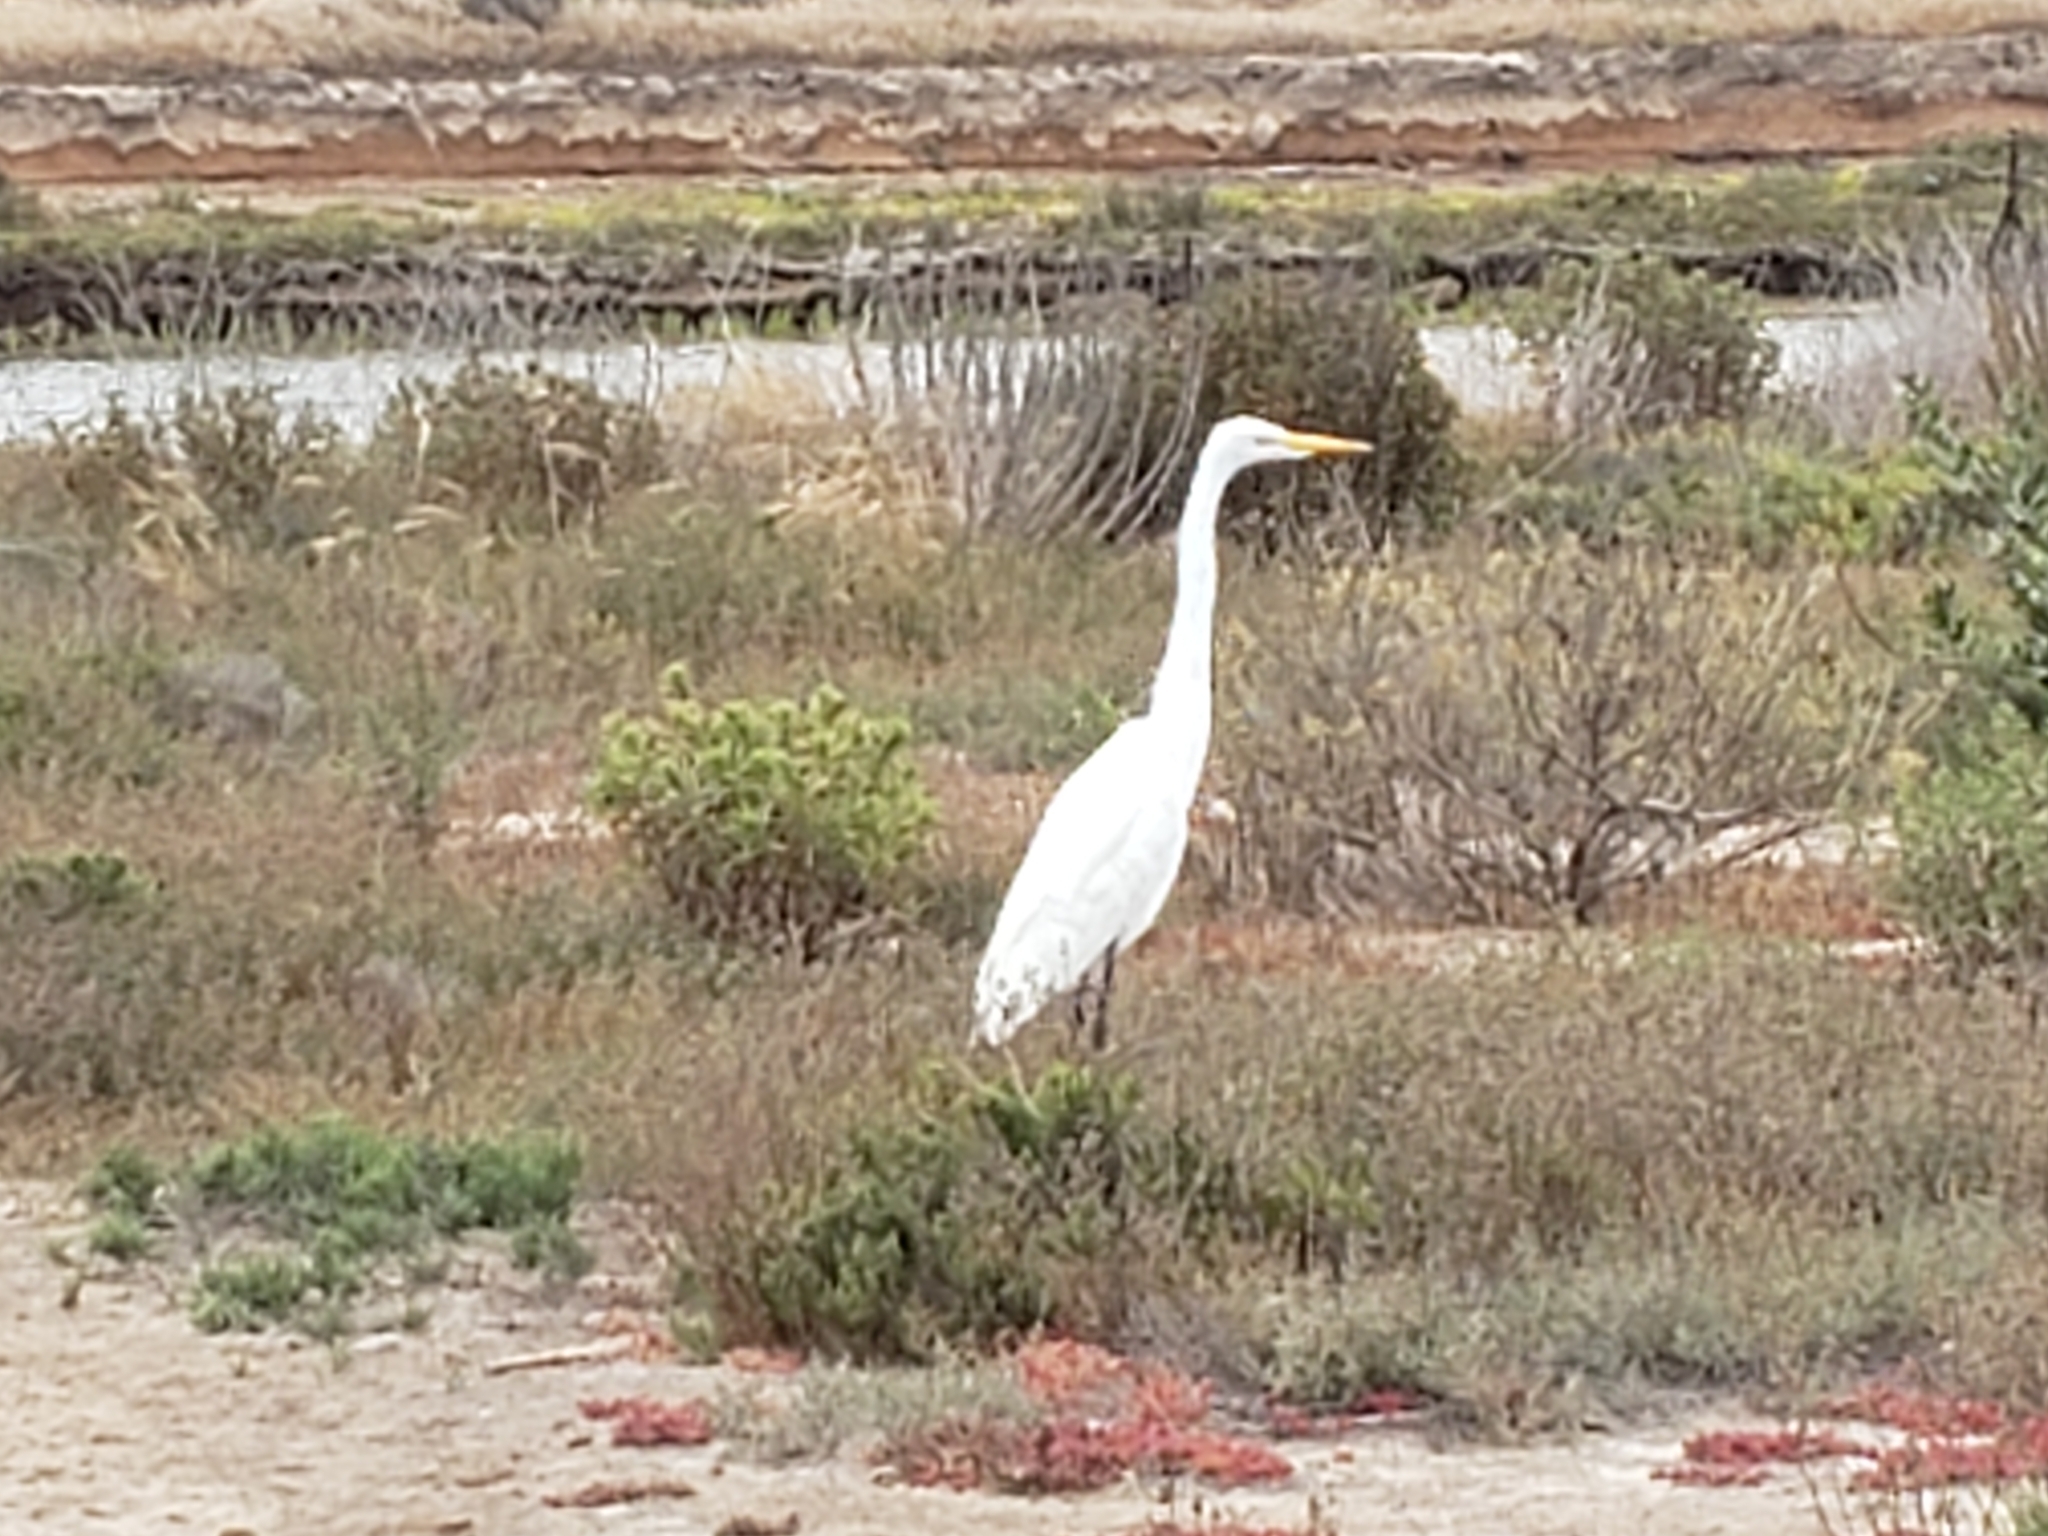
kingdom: Animalia
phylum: Chordata
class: Aves
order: Pelecaniformes
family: Ardeidae
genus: Ardea
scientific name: Ardea alba
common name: Great egret
